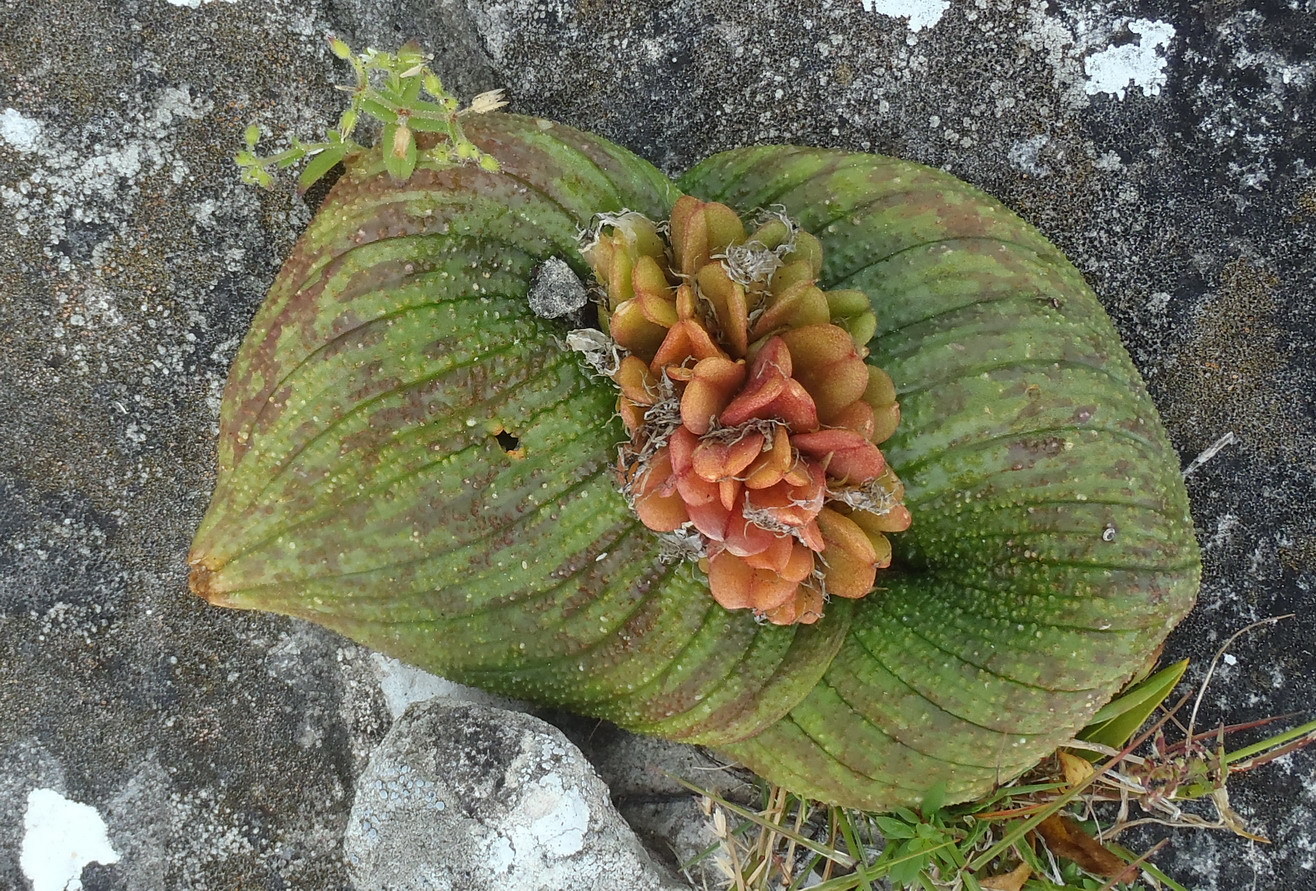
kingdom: Plantae
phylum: Tracheophyta
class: Liliopsida
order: Asparagales
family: Asparagaceae
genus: Massonia
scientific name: Massonia longipes
